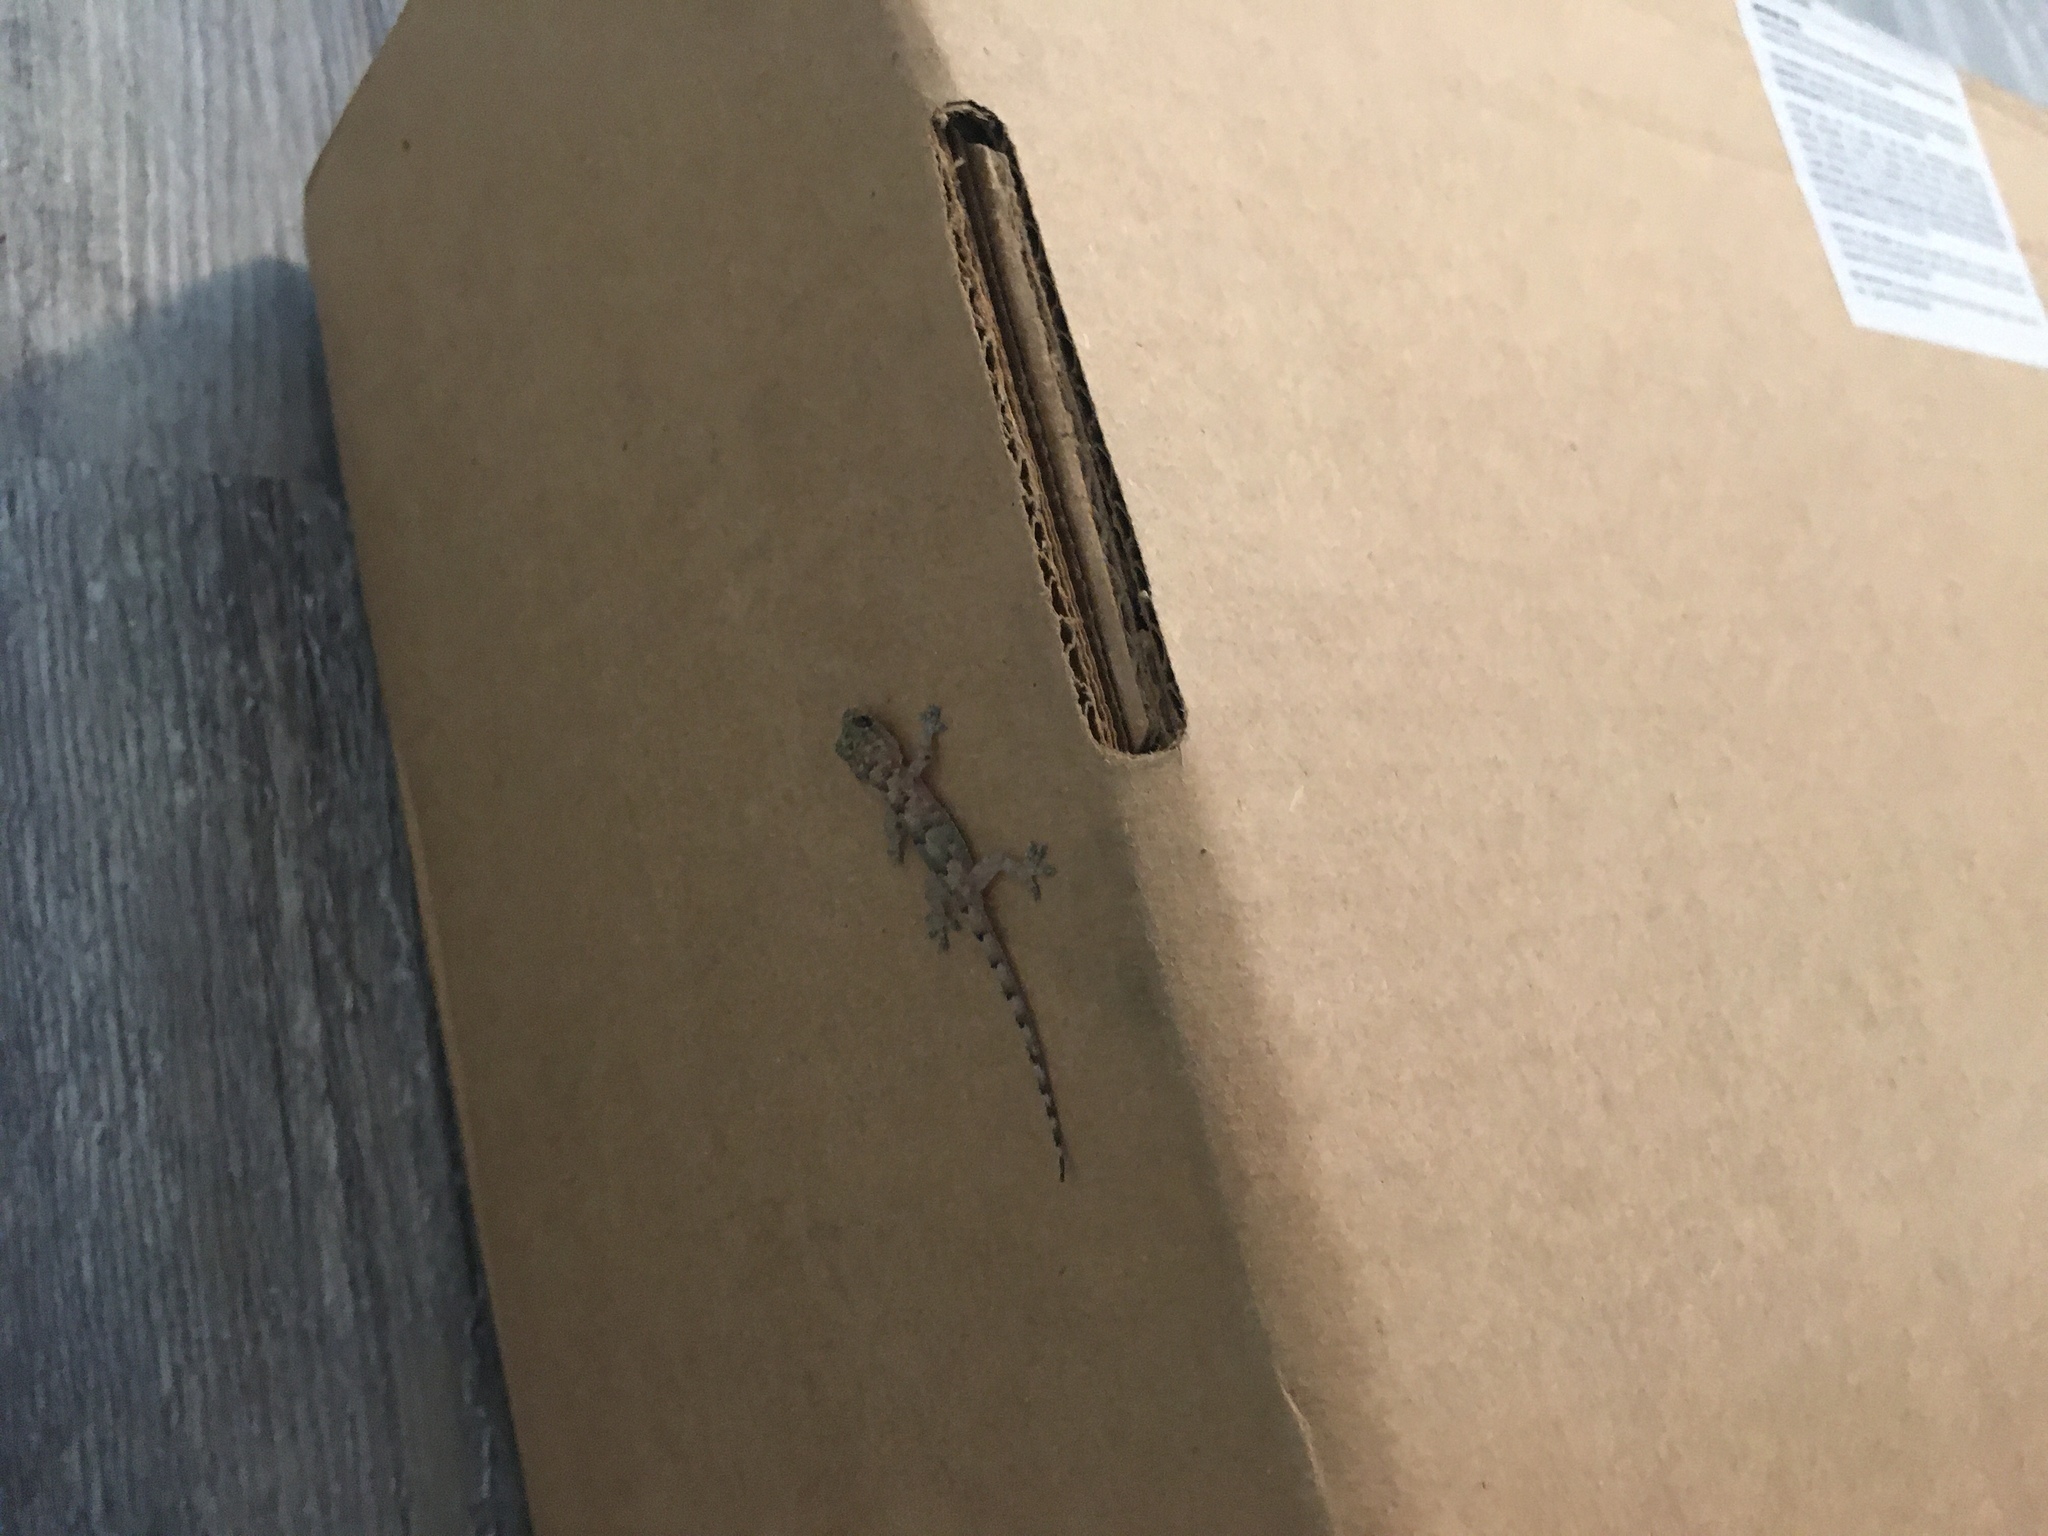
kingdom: Animalia
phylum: Chordata
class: Squamata
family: Gekkonidae
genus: Hemidactylus
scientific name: Hemidactylus mabouia
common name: House gecko
